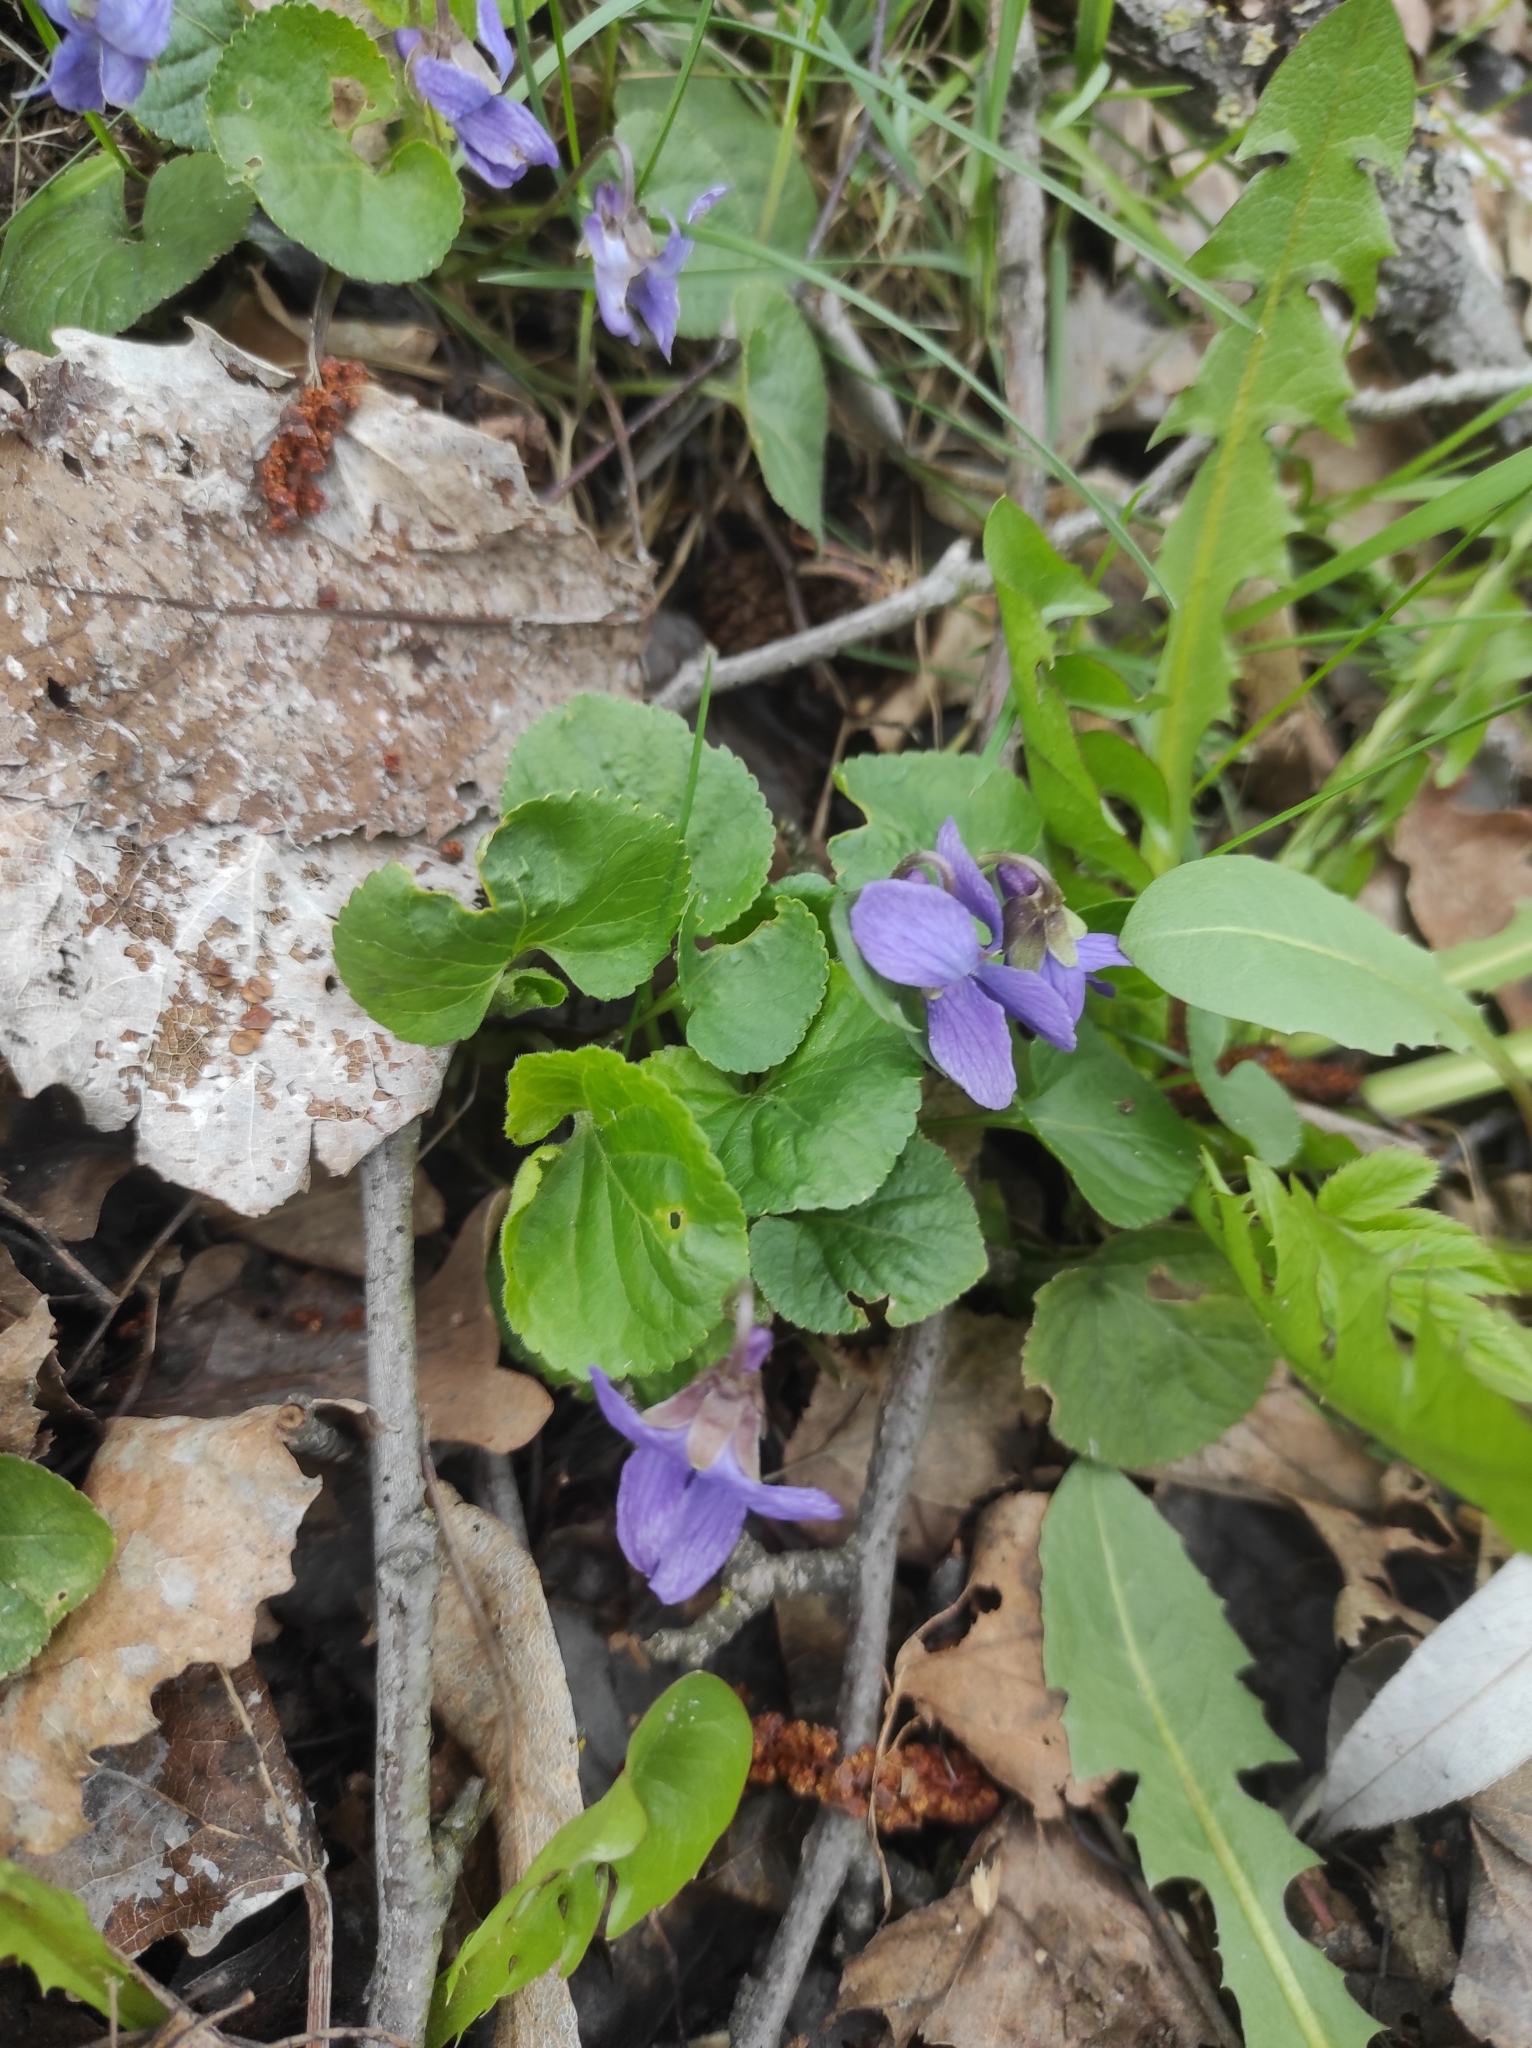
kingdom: Plantae
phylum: Tracheophyta
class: Magnoliopsida
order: Malpighiales
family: Violaceae
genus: Viola
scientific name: Viola odorata
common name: Sweet violet
